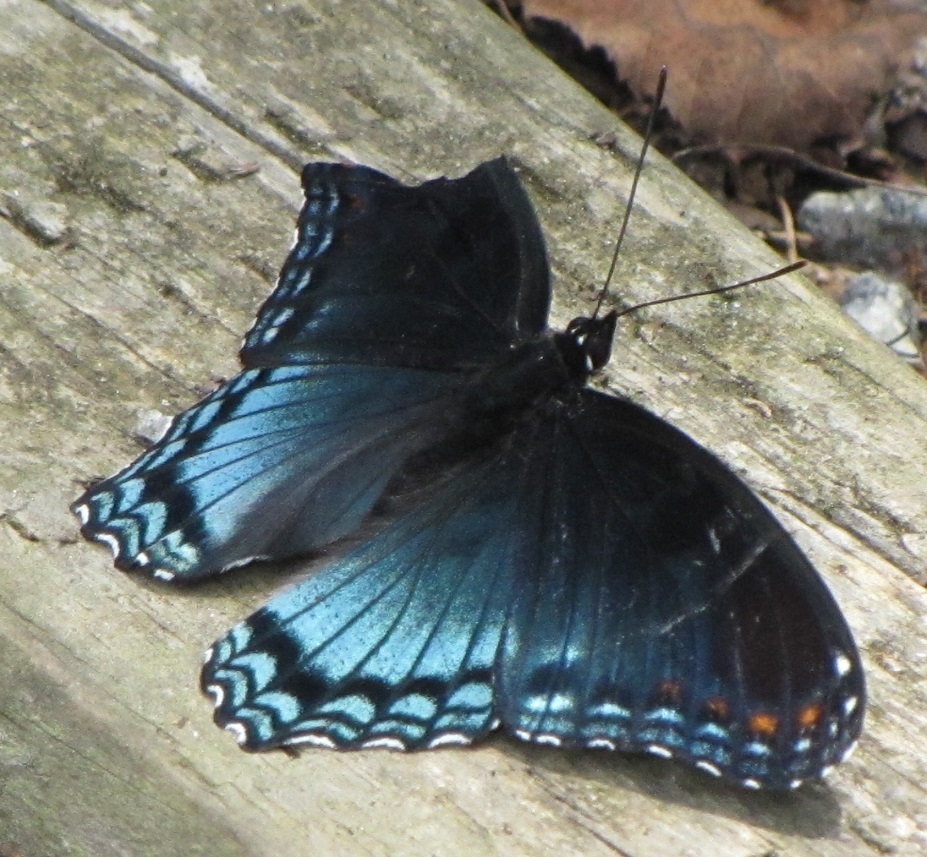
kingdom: Animalia
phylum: Arthropoda
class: Insecta
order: Lepidoptera
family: Nymphalidae
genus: Limenitis
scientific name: Limenitis astyanax
